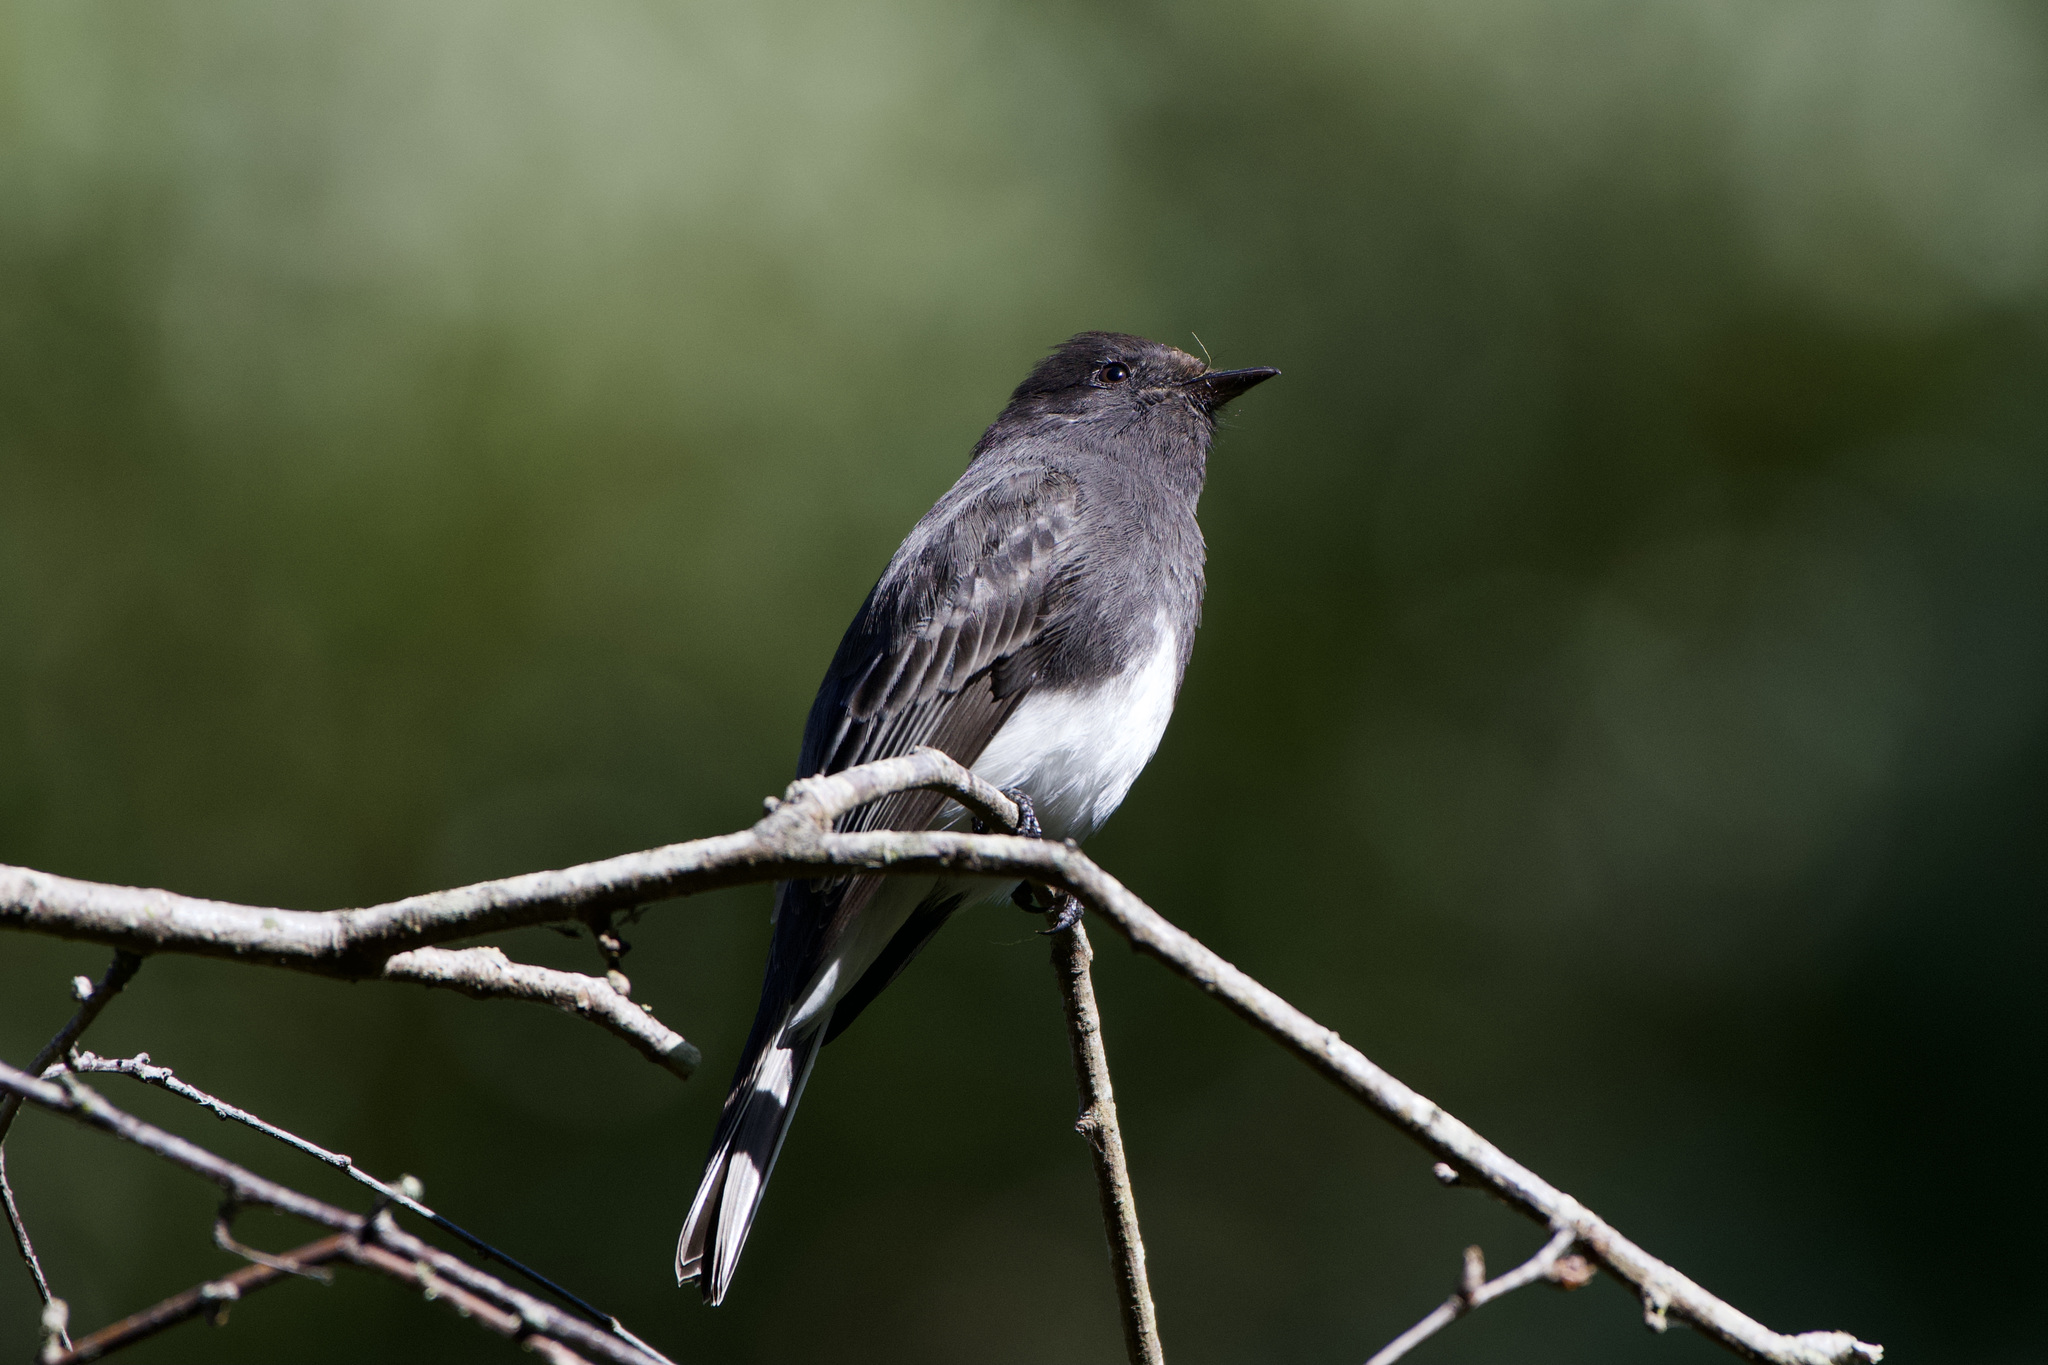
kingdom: Animalia
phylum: Chordata
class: Aves
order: Passeriformes
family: Tyrannidae
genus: Sayornis
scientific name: Sayornis nigricans
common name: Black phoebe
